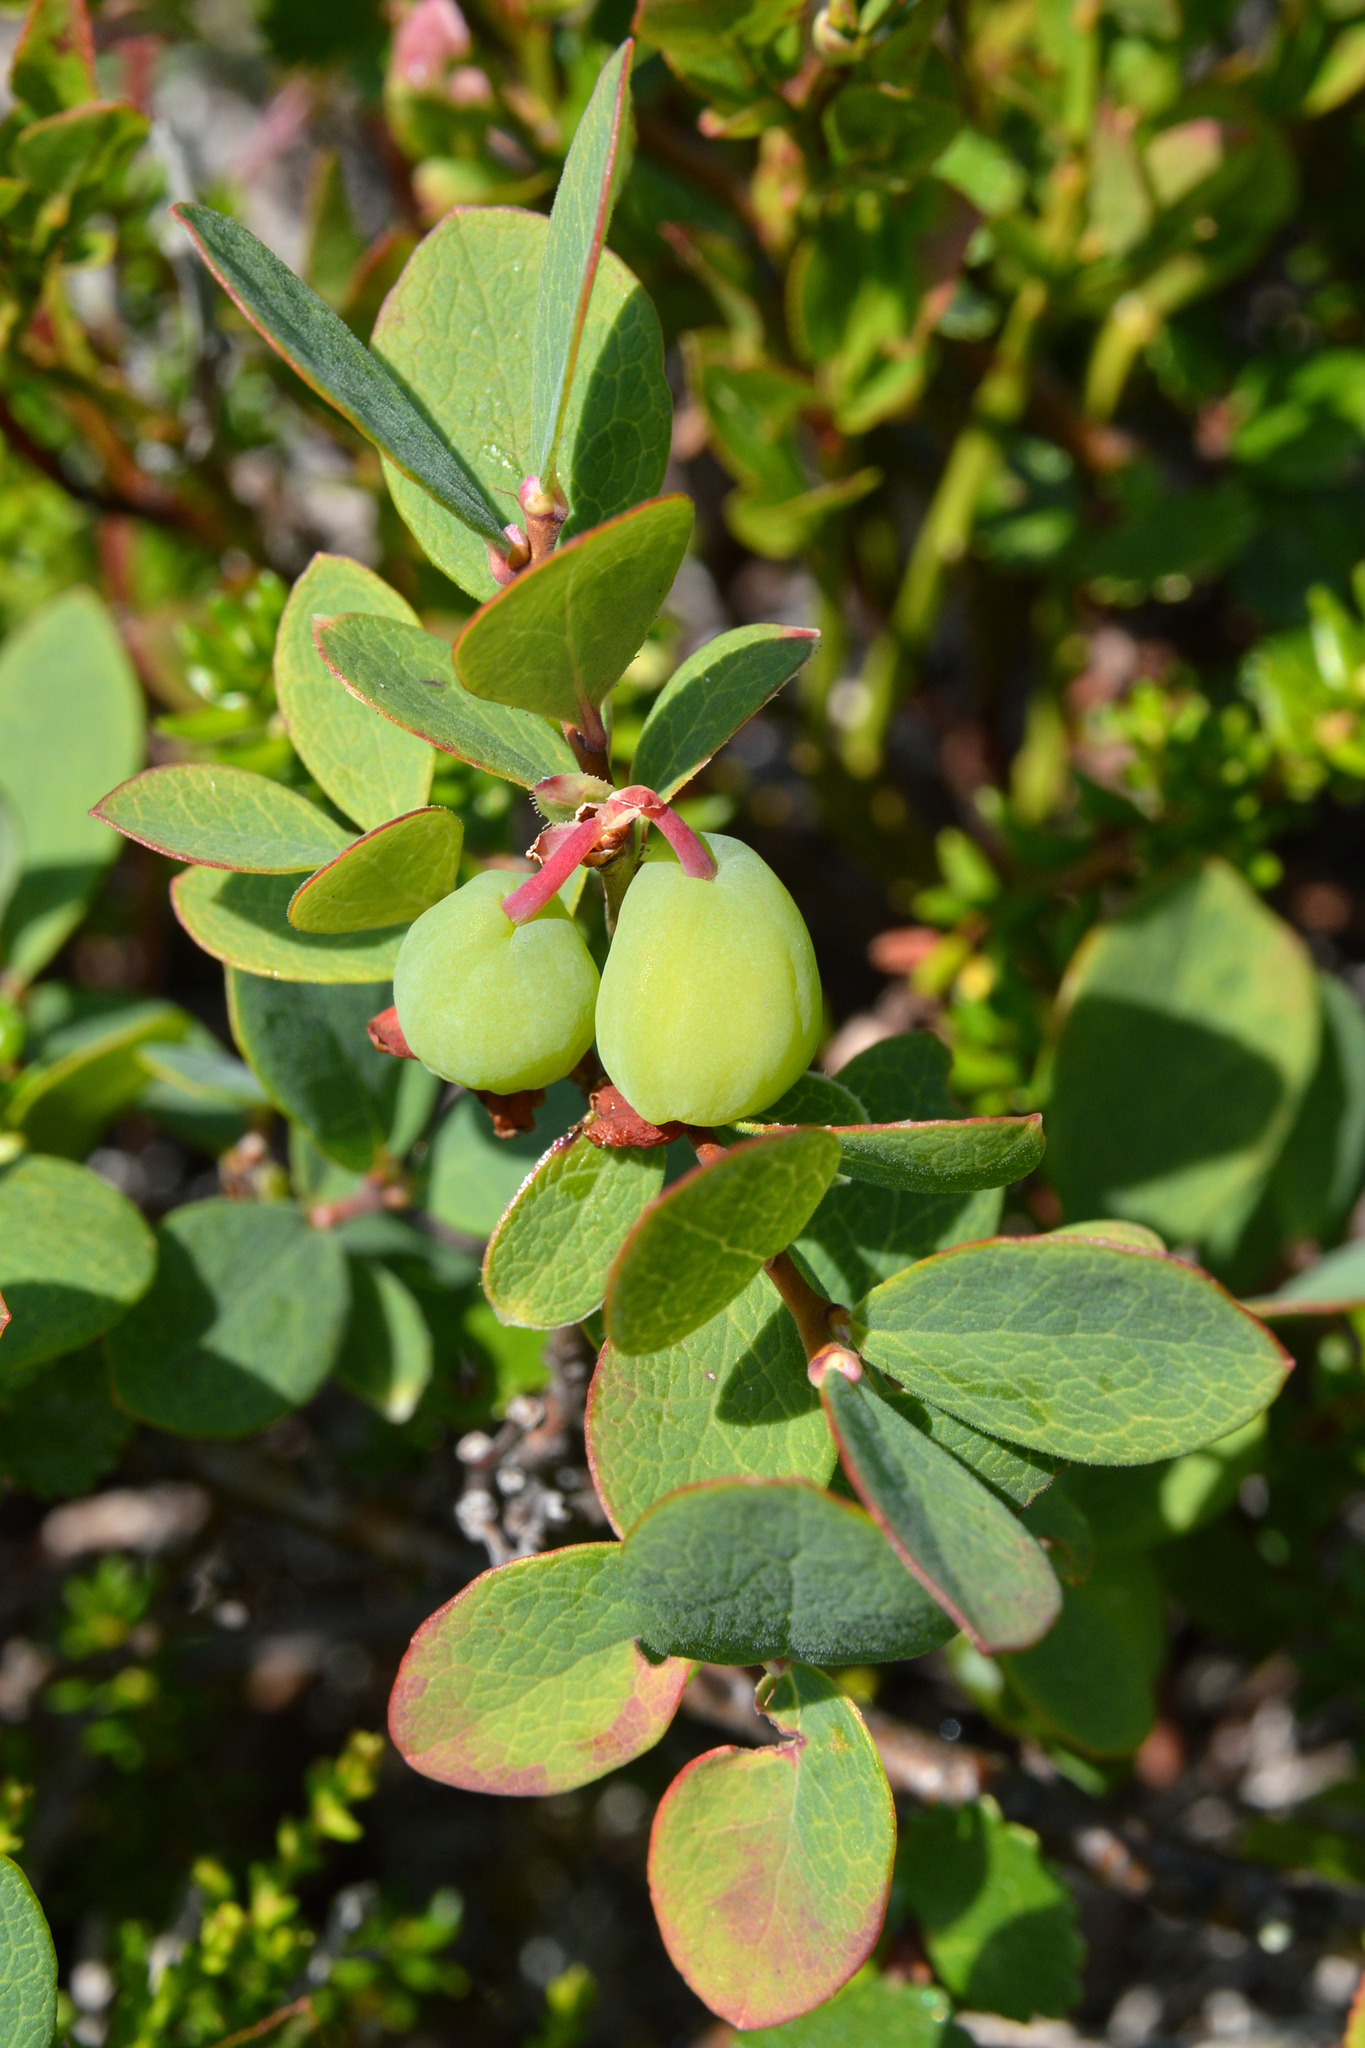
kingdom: Plantae
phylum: Tracheophyta
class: Magnoliopsida
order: Ericales
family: Ericaceae
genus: Vaccinium
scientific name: Vaccinium uliginosum
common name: Bog bilberry
